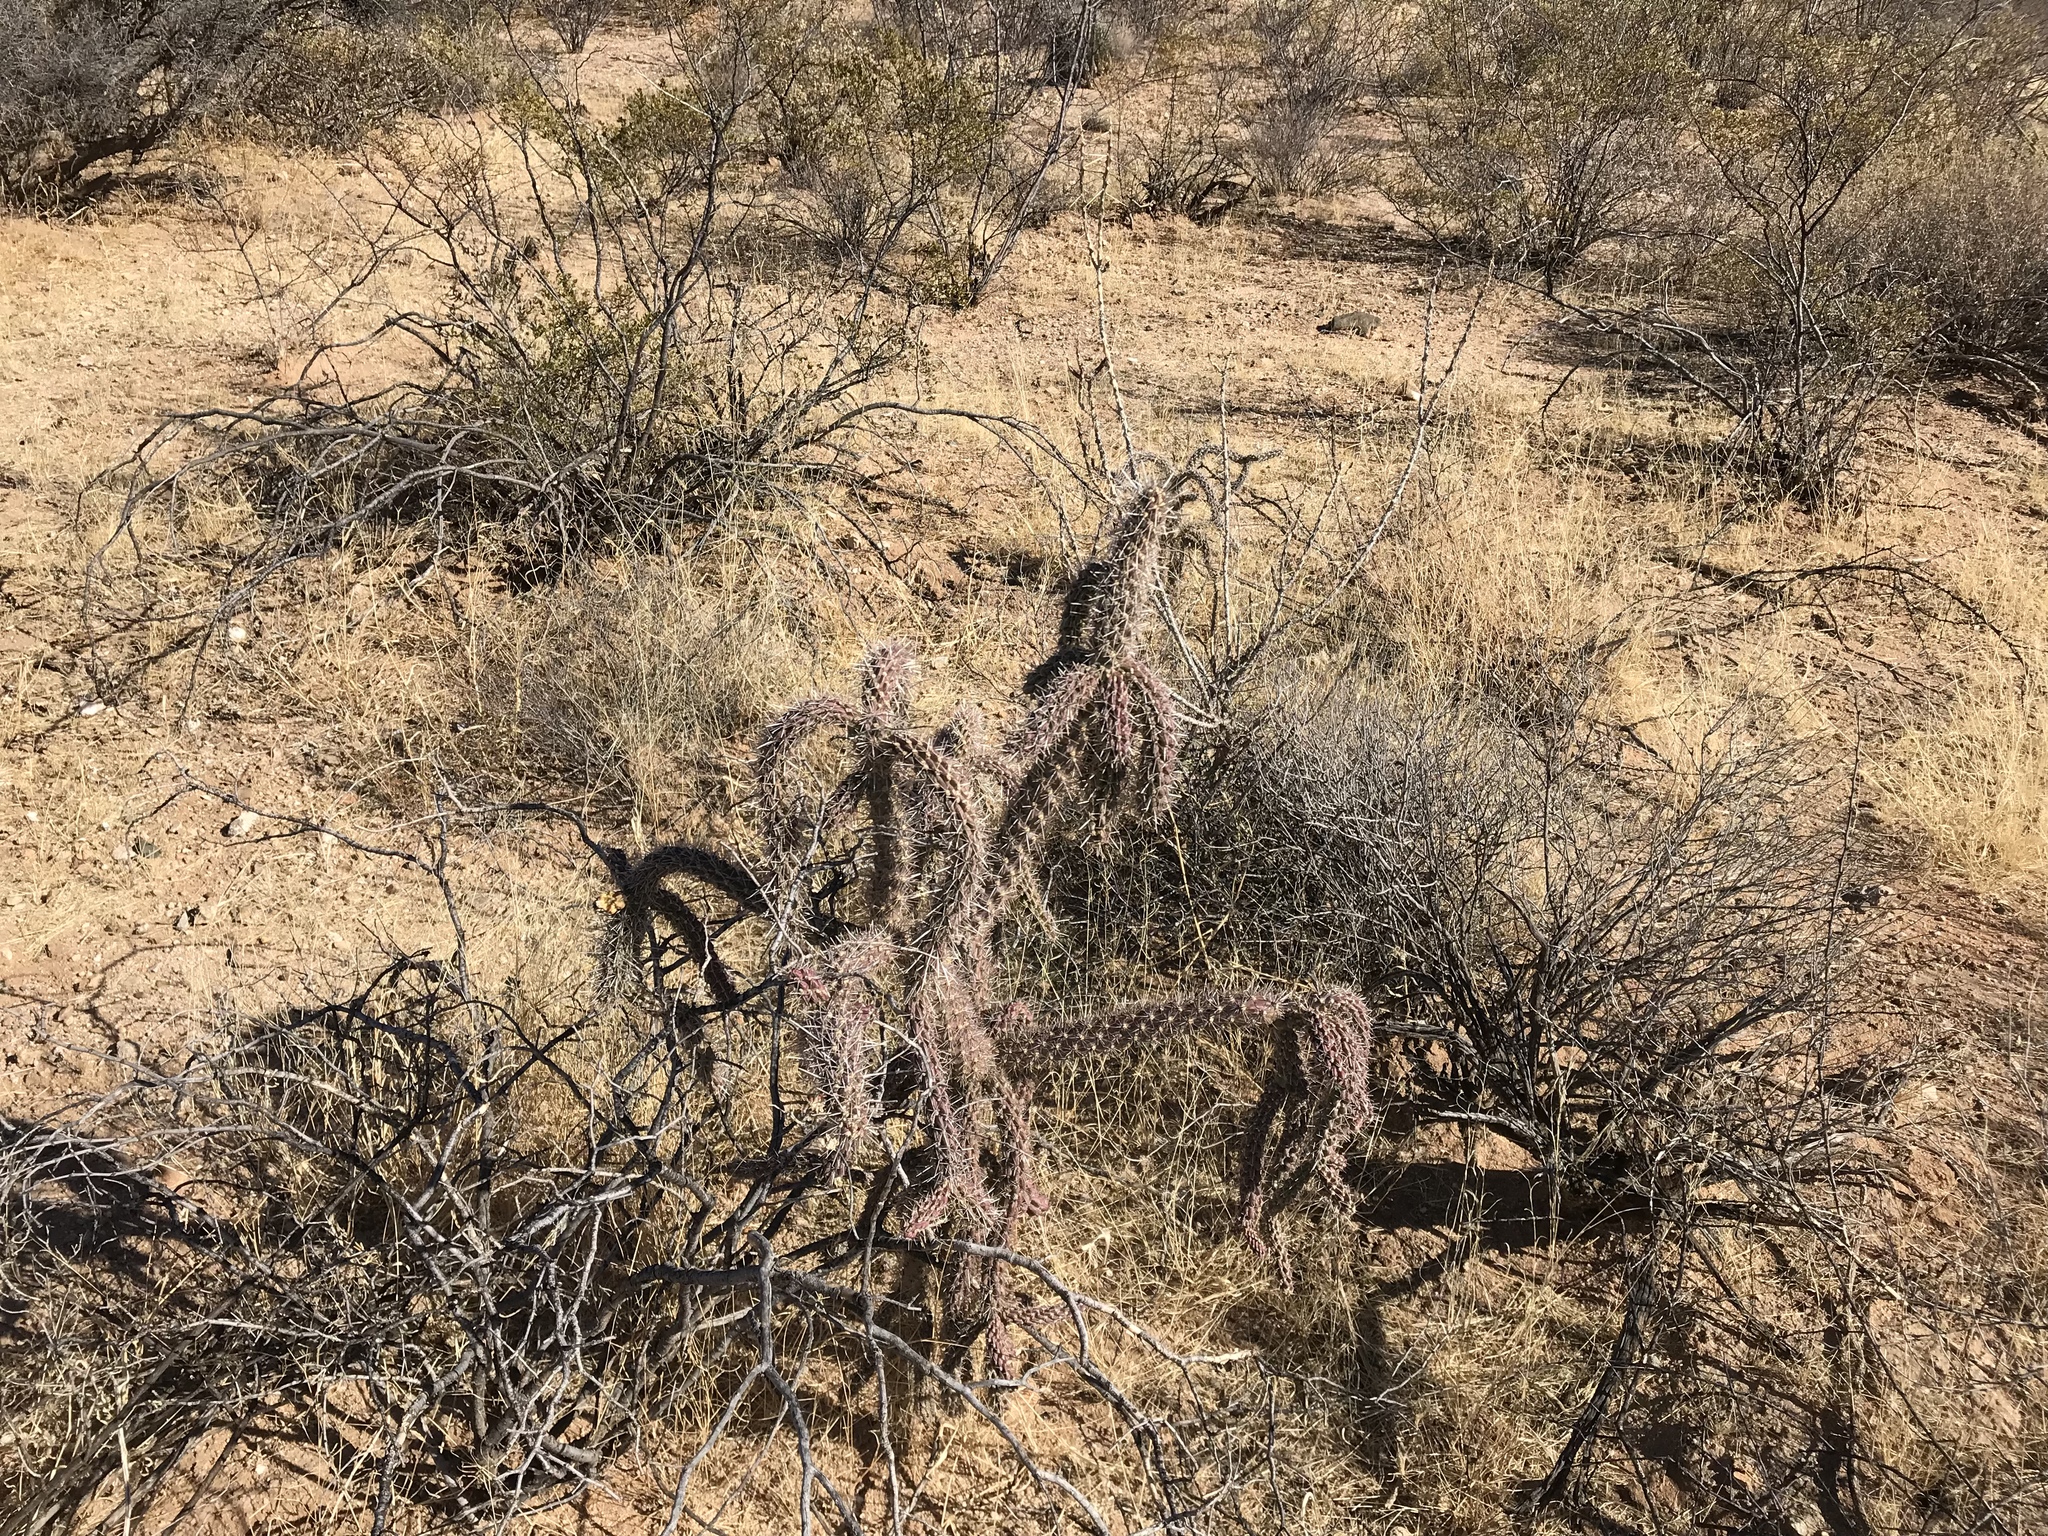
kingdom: Plantae
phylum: Tracheophyta
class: Magnoliopsida
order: Caryophyllales
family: Cactaceae
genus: Cylindropuntia
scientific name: Cylindropuntia imbricata
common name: Candelabrum cactus
